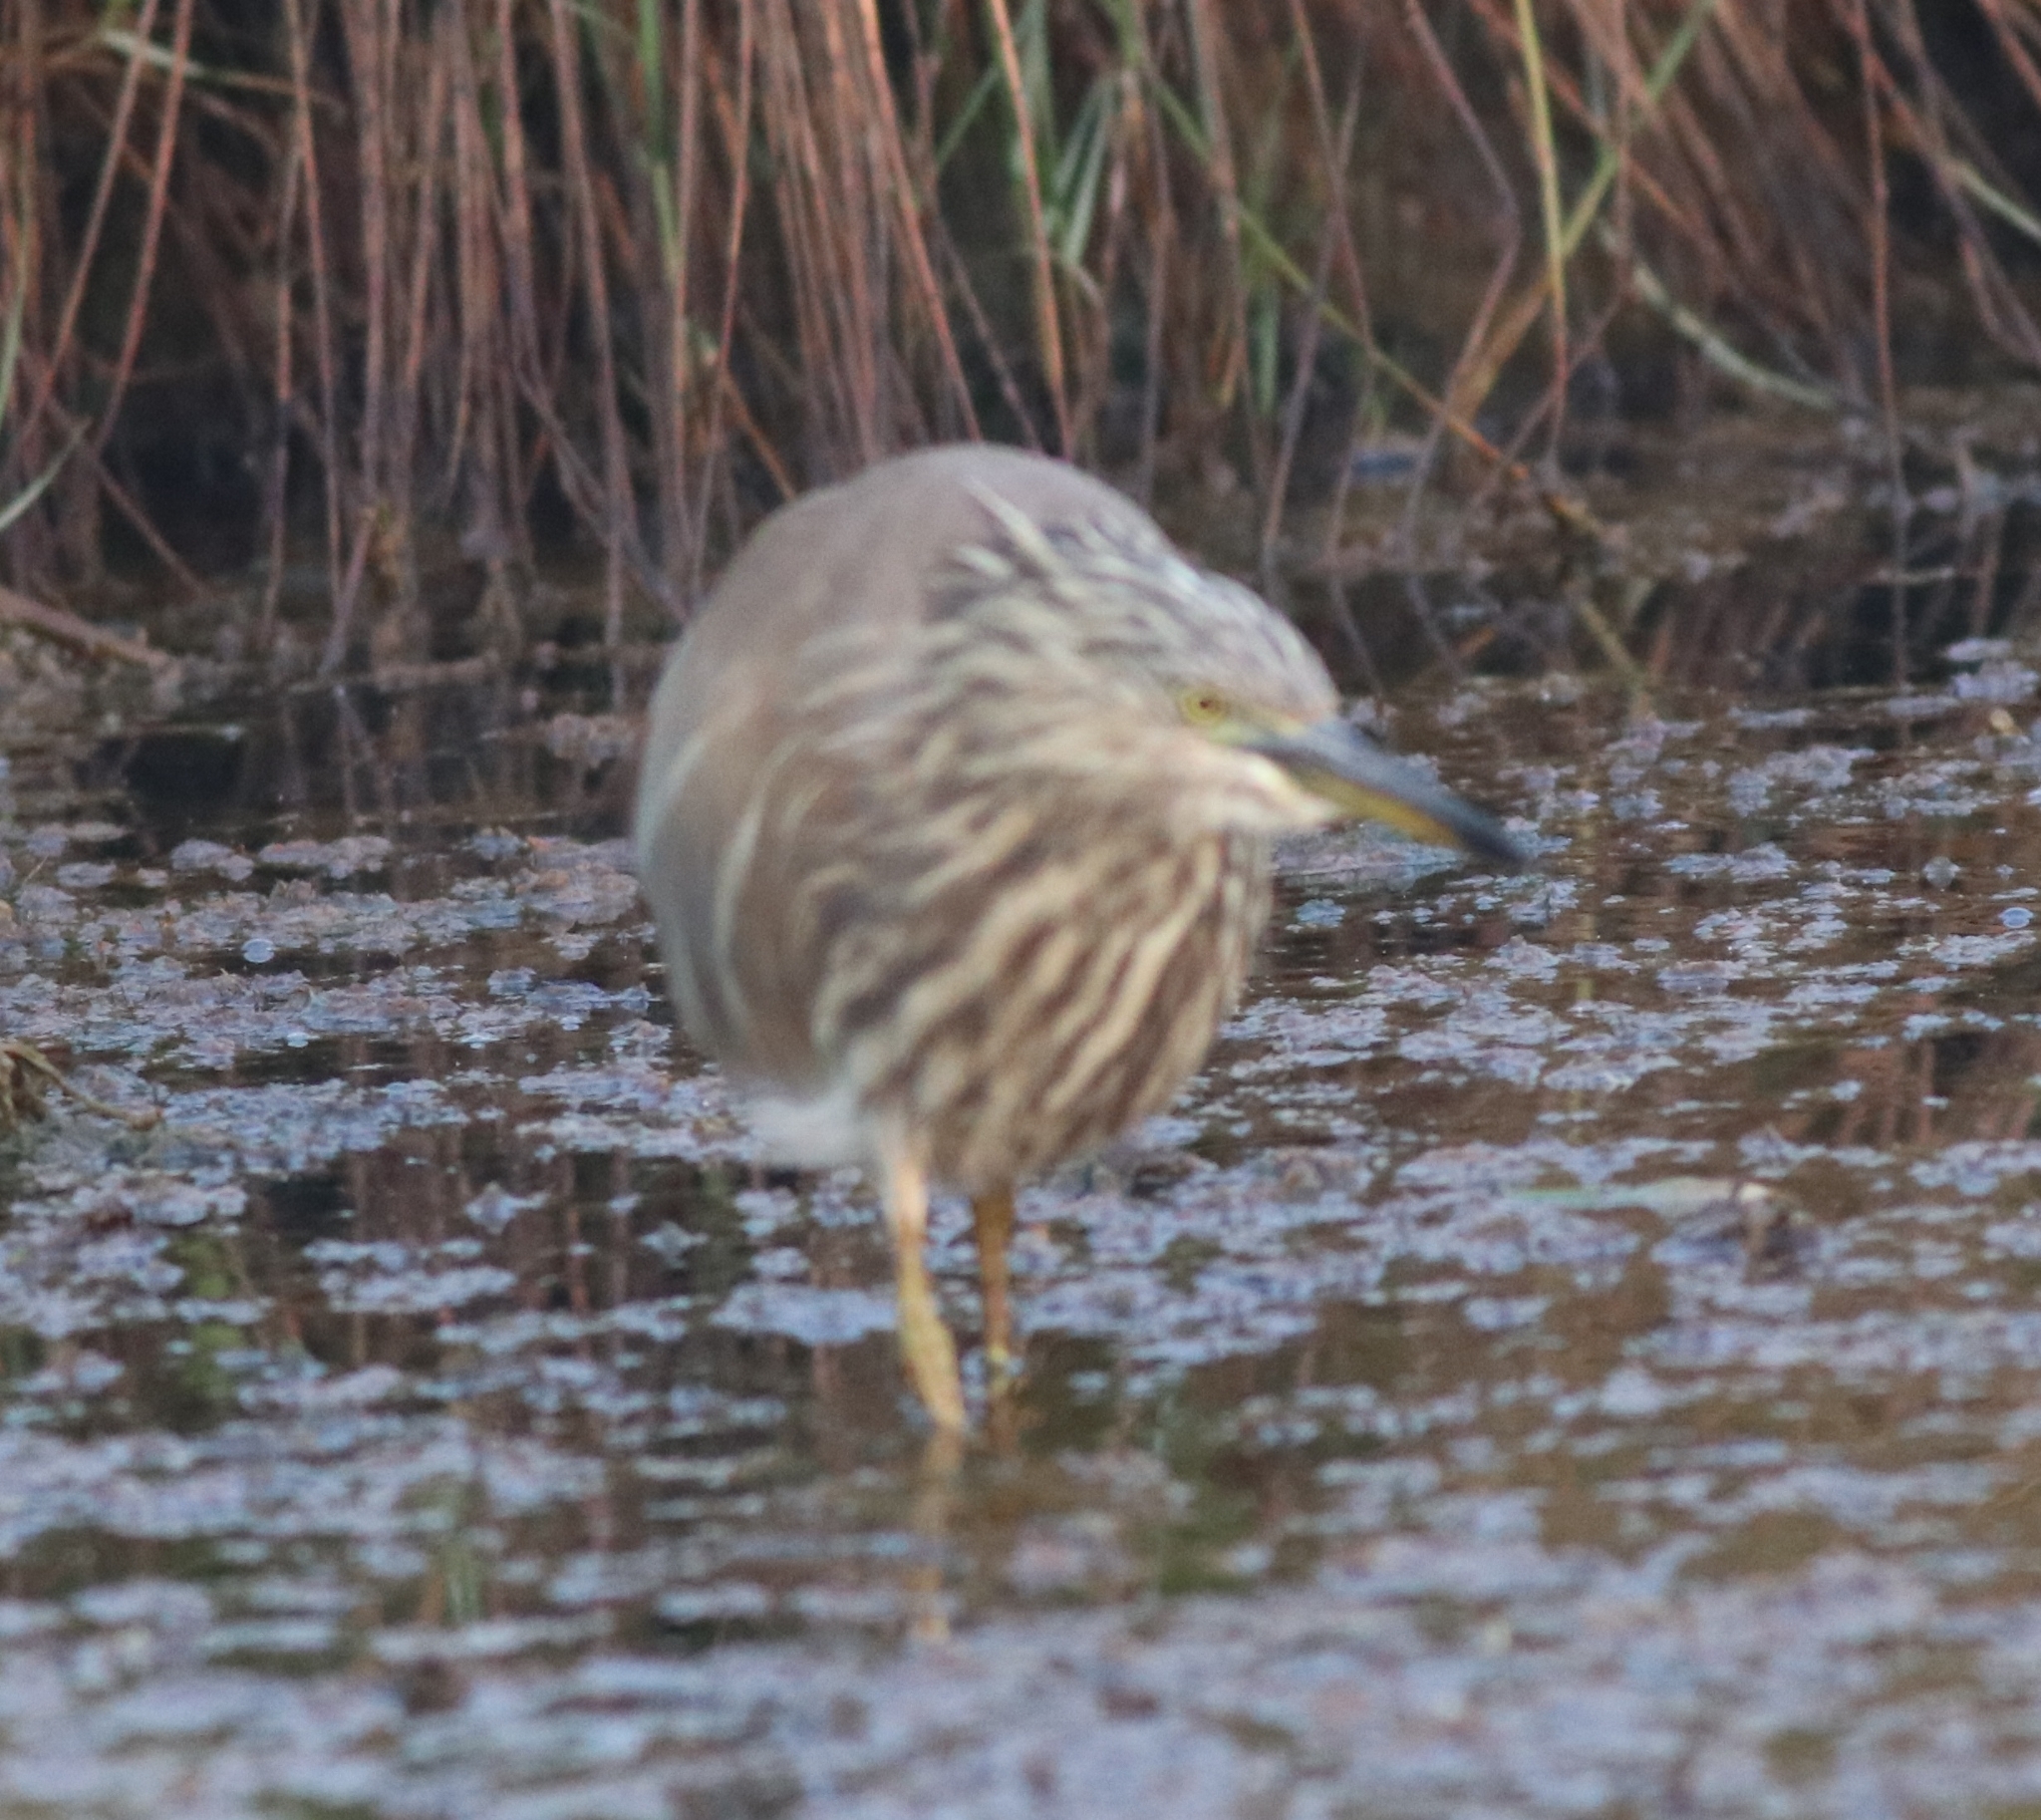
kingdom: Animalia
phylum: Chordata
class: Aves
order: Pelecaniformes
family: Ardeidae
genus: Ardeola
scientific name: Ardeola grayii
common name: Indian pond heron
